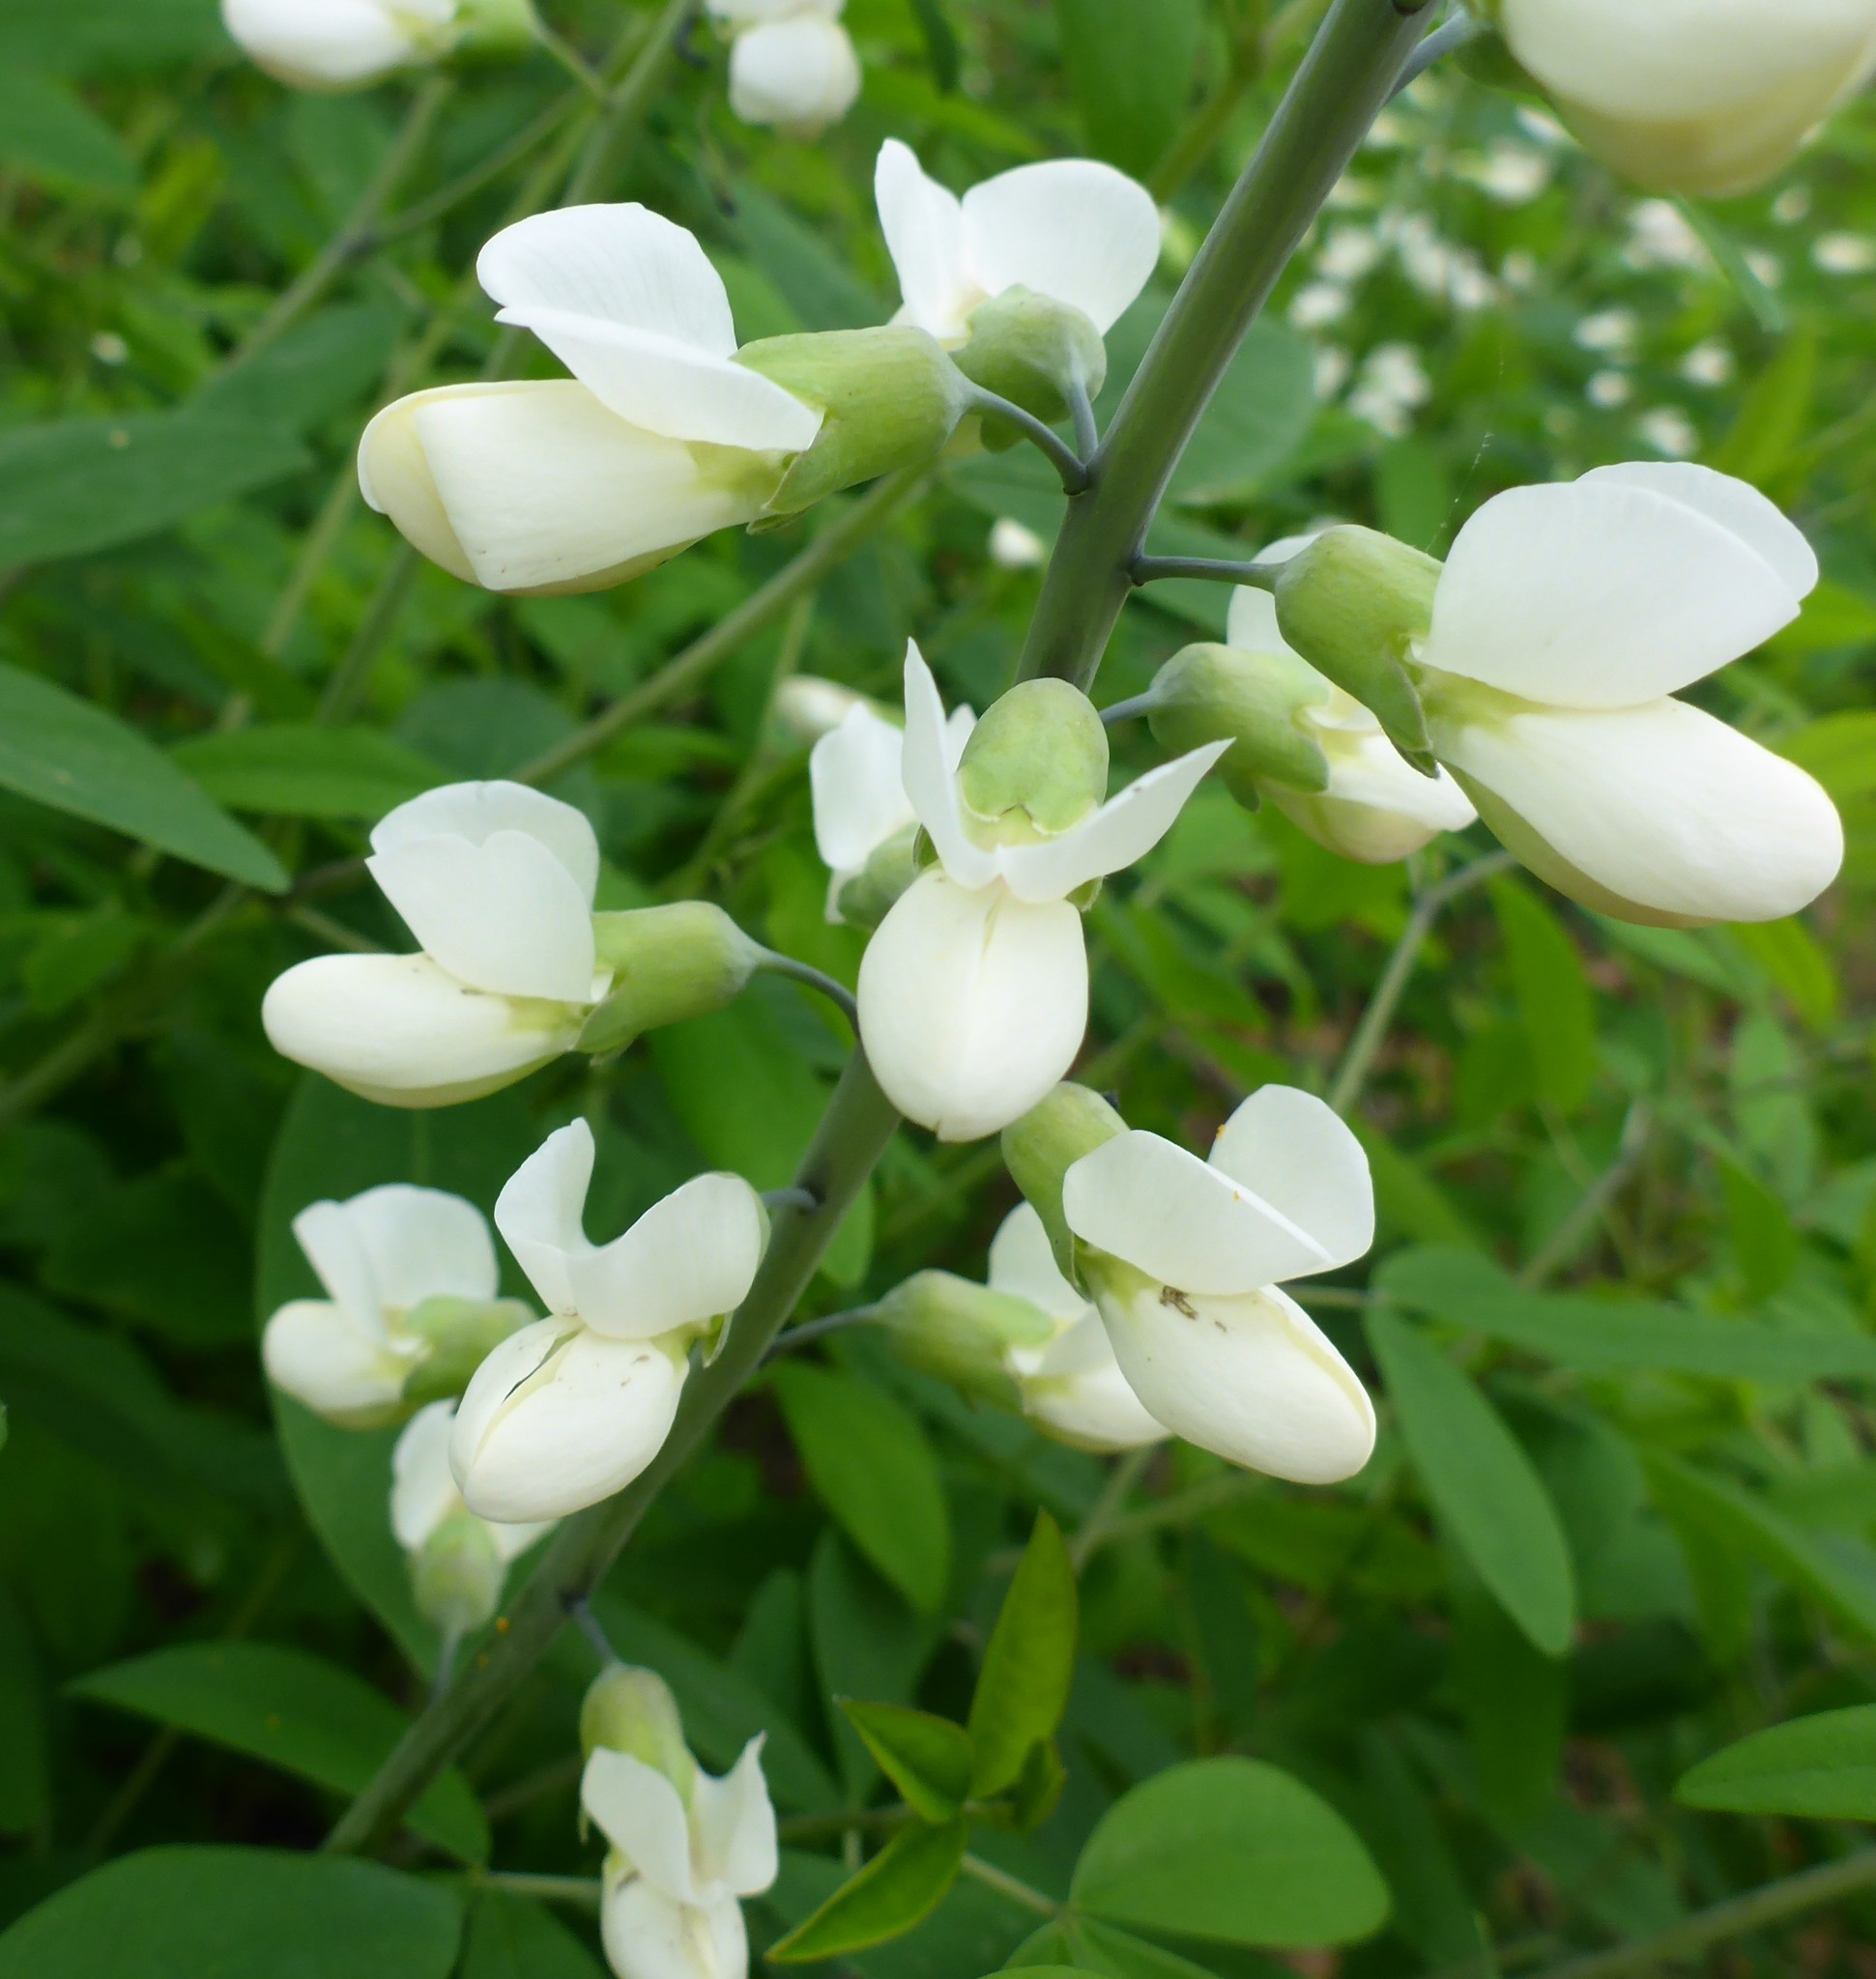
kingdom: Plantae
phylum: Tracheophyta
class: Magnoliopsida
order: Fabales
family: Fabaceae
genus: Baptisia
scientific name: Baptisia alba
